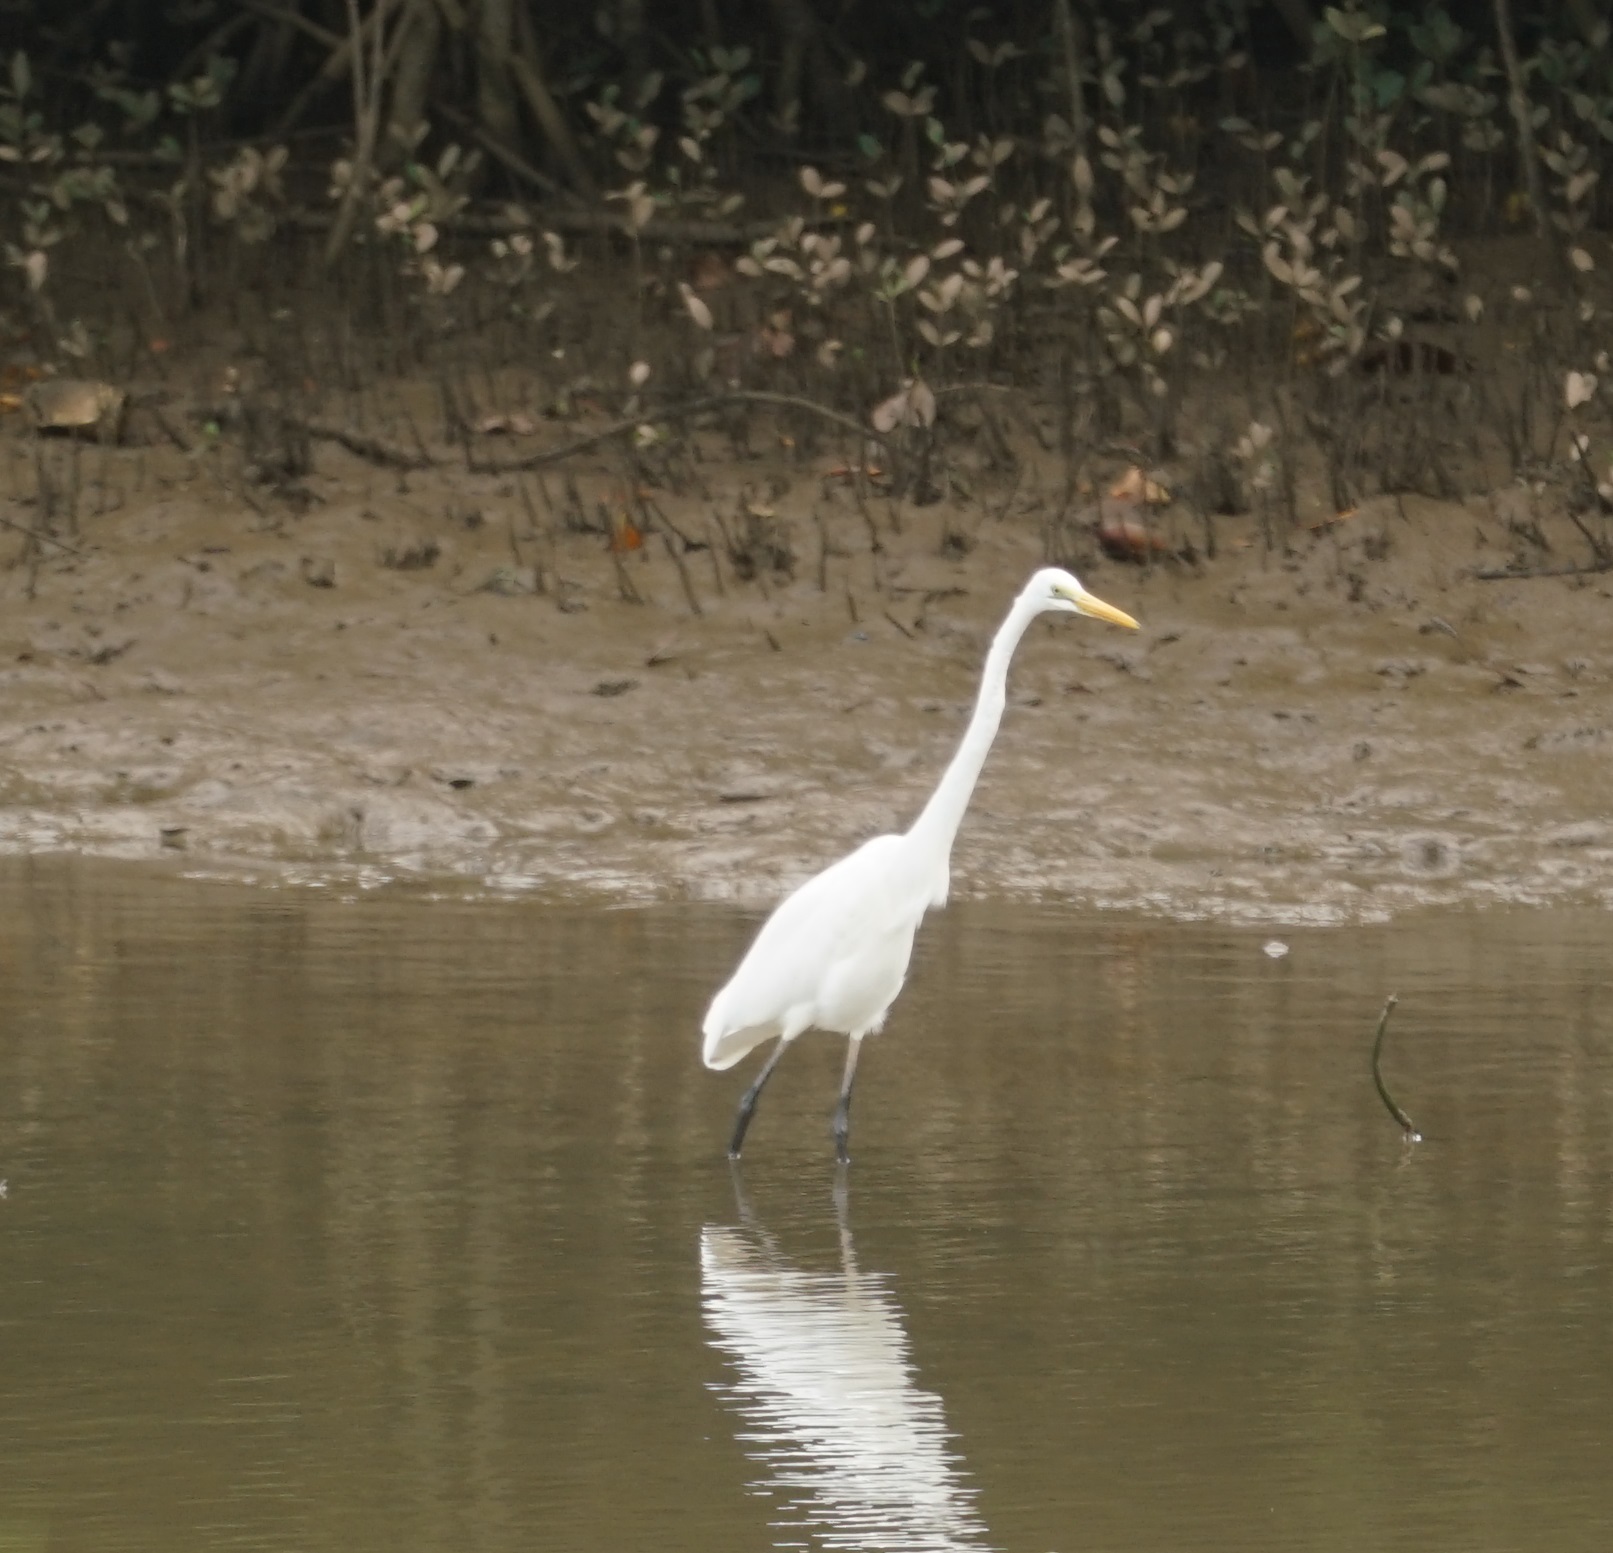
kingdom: Animalia
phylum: Chordata
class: Aves
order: Pelecaniformes
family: Ardeidae
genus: Ardea
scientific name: Ardea modesta
